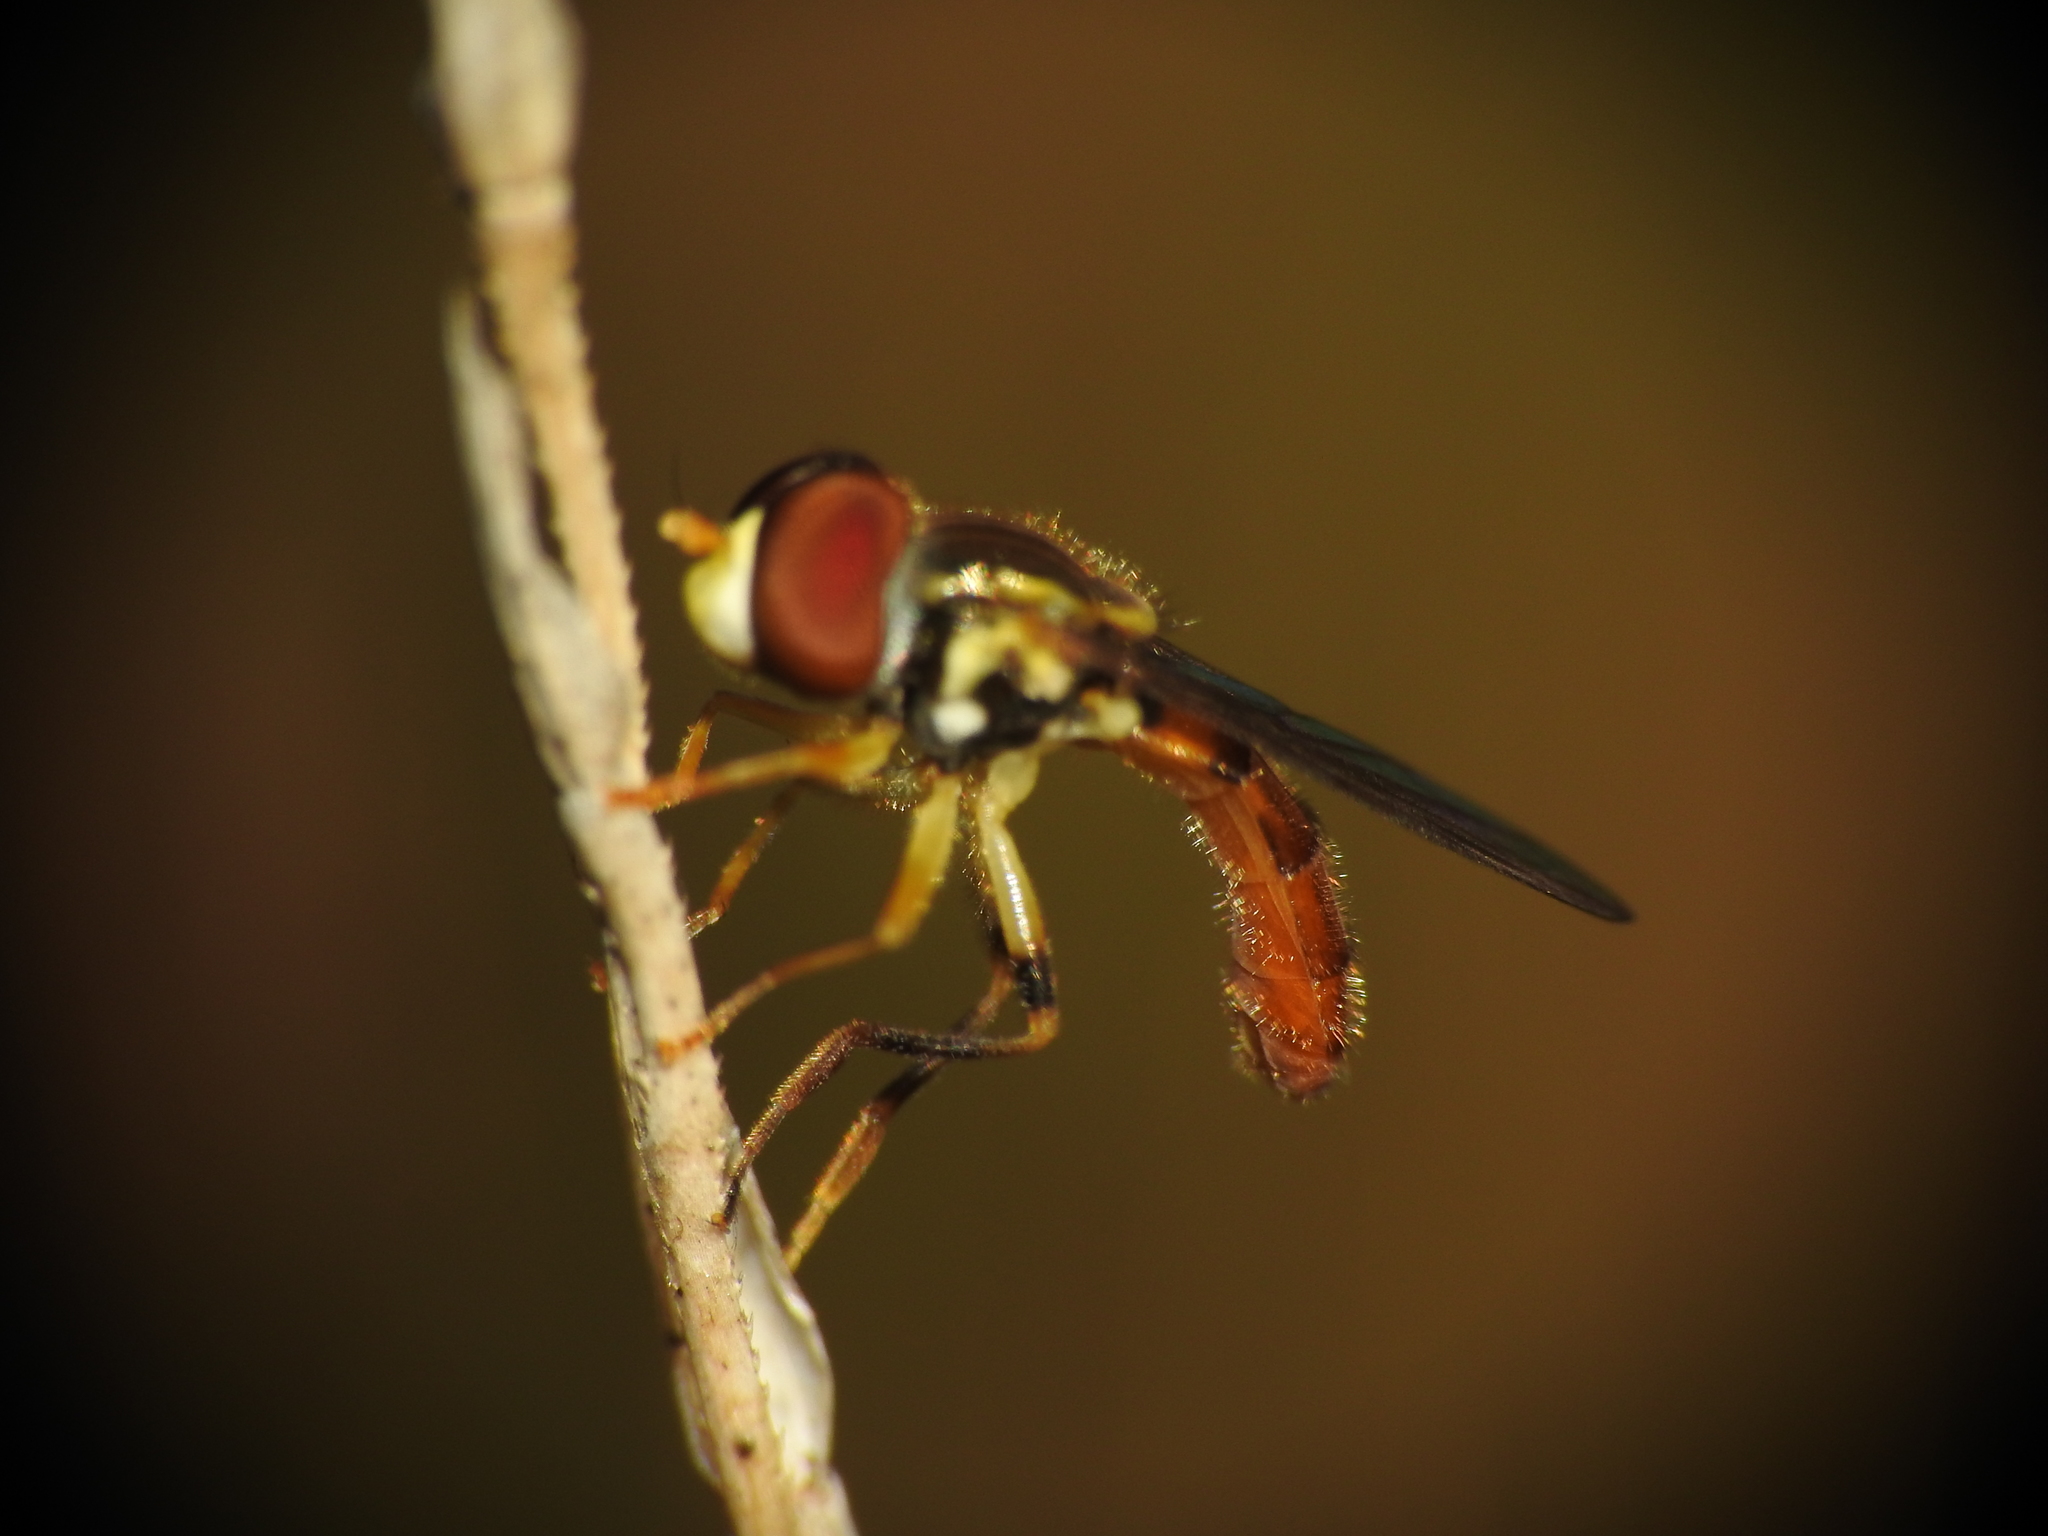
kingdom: Animalia
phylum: Arthropoda
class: Insecta
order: Diptera
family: Syrphidae
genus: Toxomerus
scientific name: Toxomerus boscii
